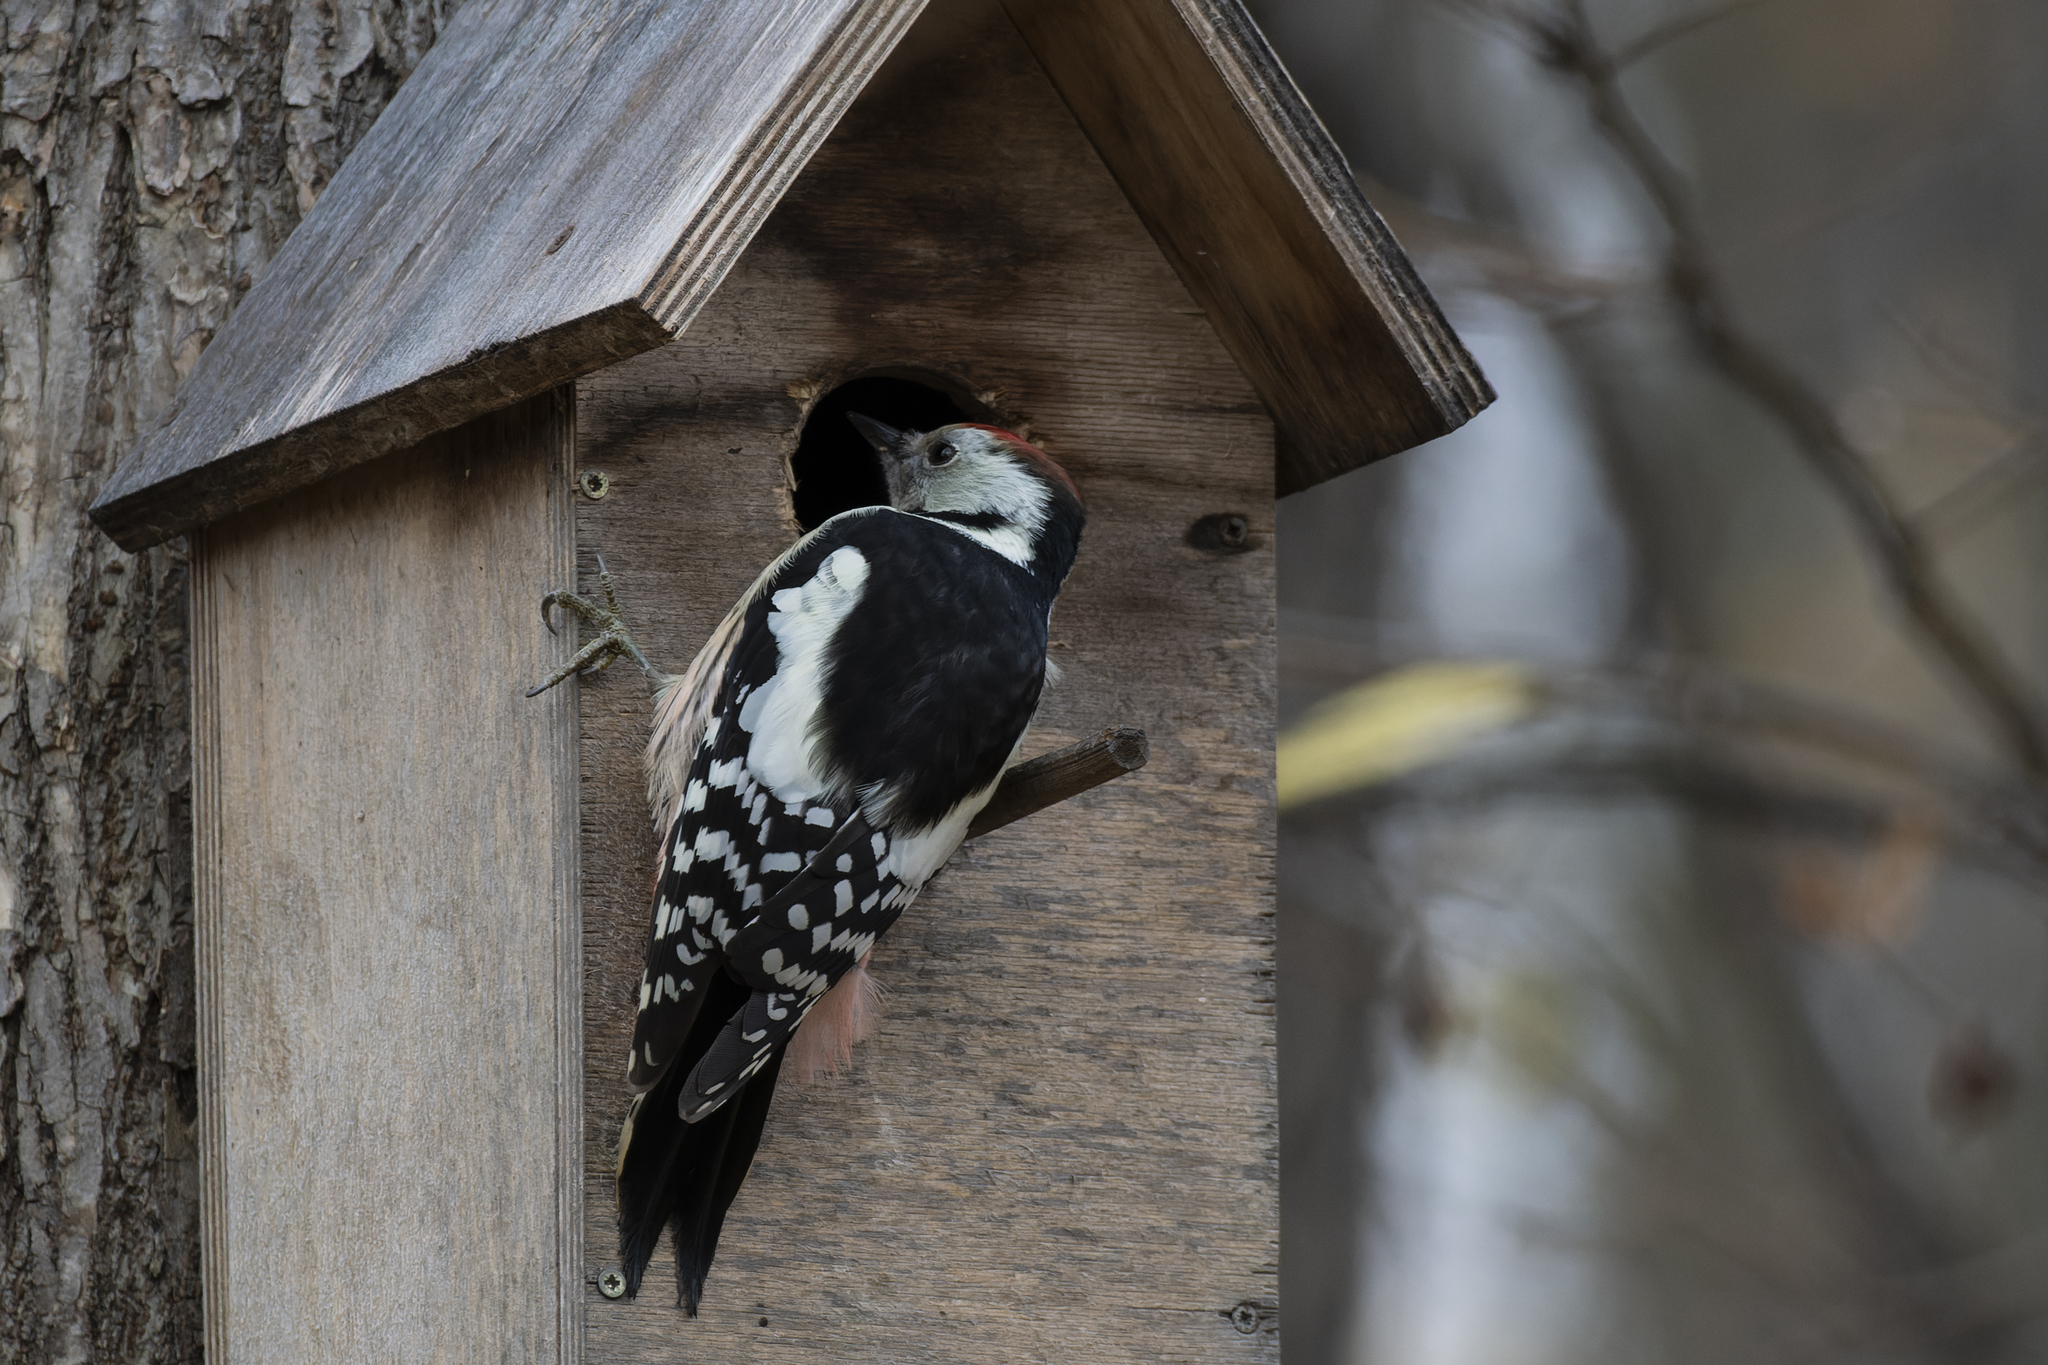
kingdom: Animalia
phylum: Chordata
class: Aves
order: Piciformes
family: Picidae
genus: Dendrocoptes
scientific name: Dendrocoptes medius
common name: Middle spotted woodpecker
